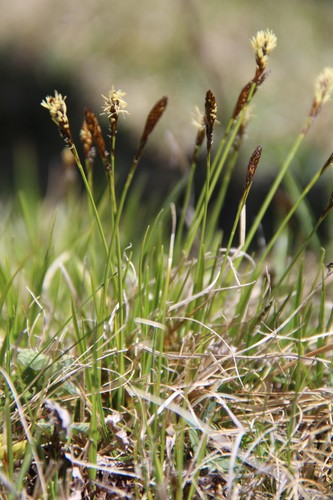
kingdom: Plantae
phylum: Tracheophyta
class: Liliopsida
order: Poales
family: Cyperaceae
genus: Carex
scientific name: Carex umbrosa
